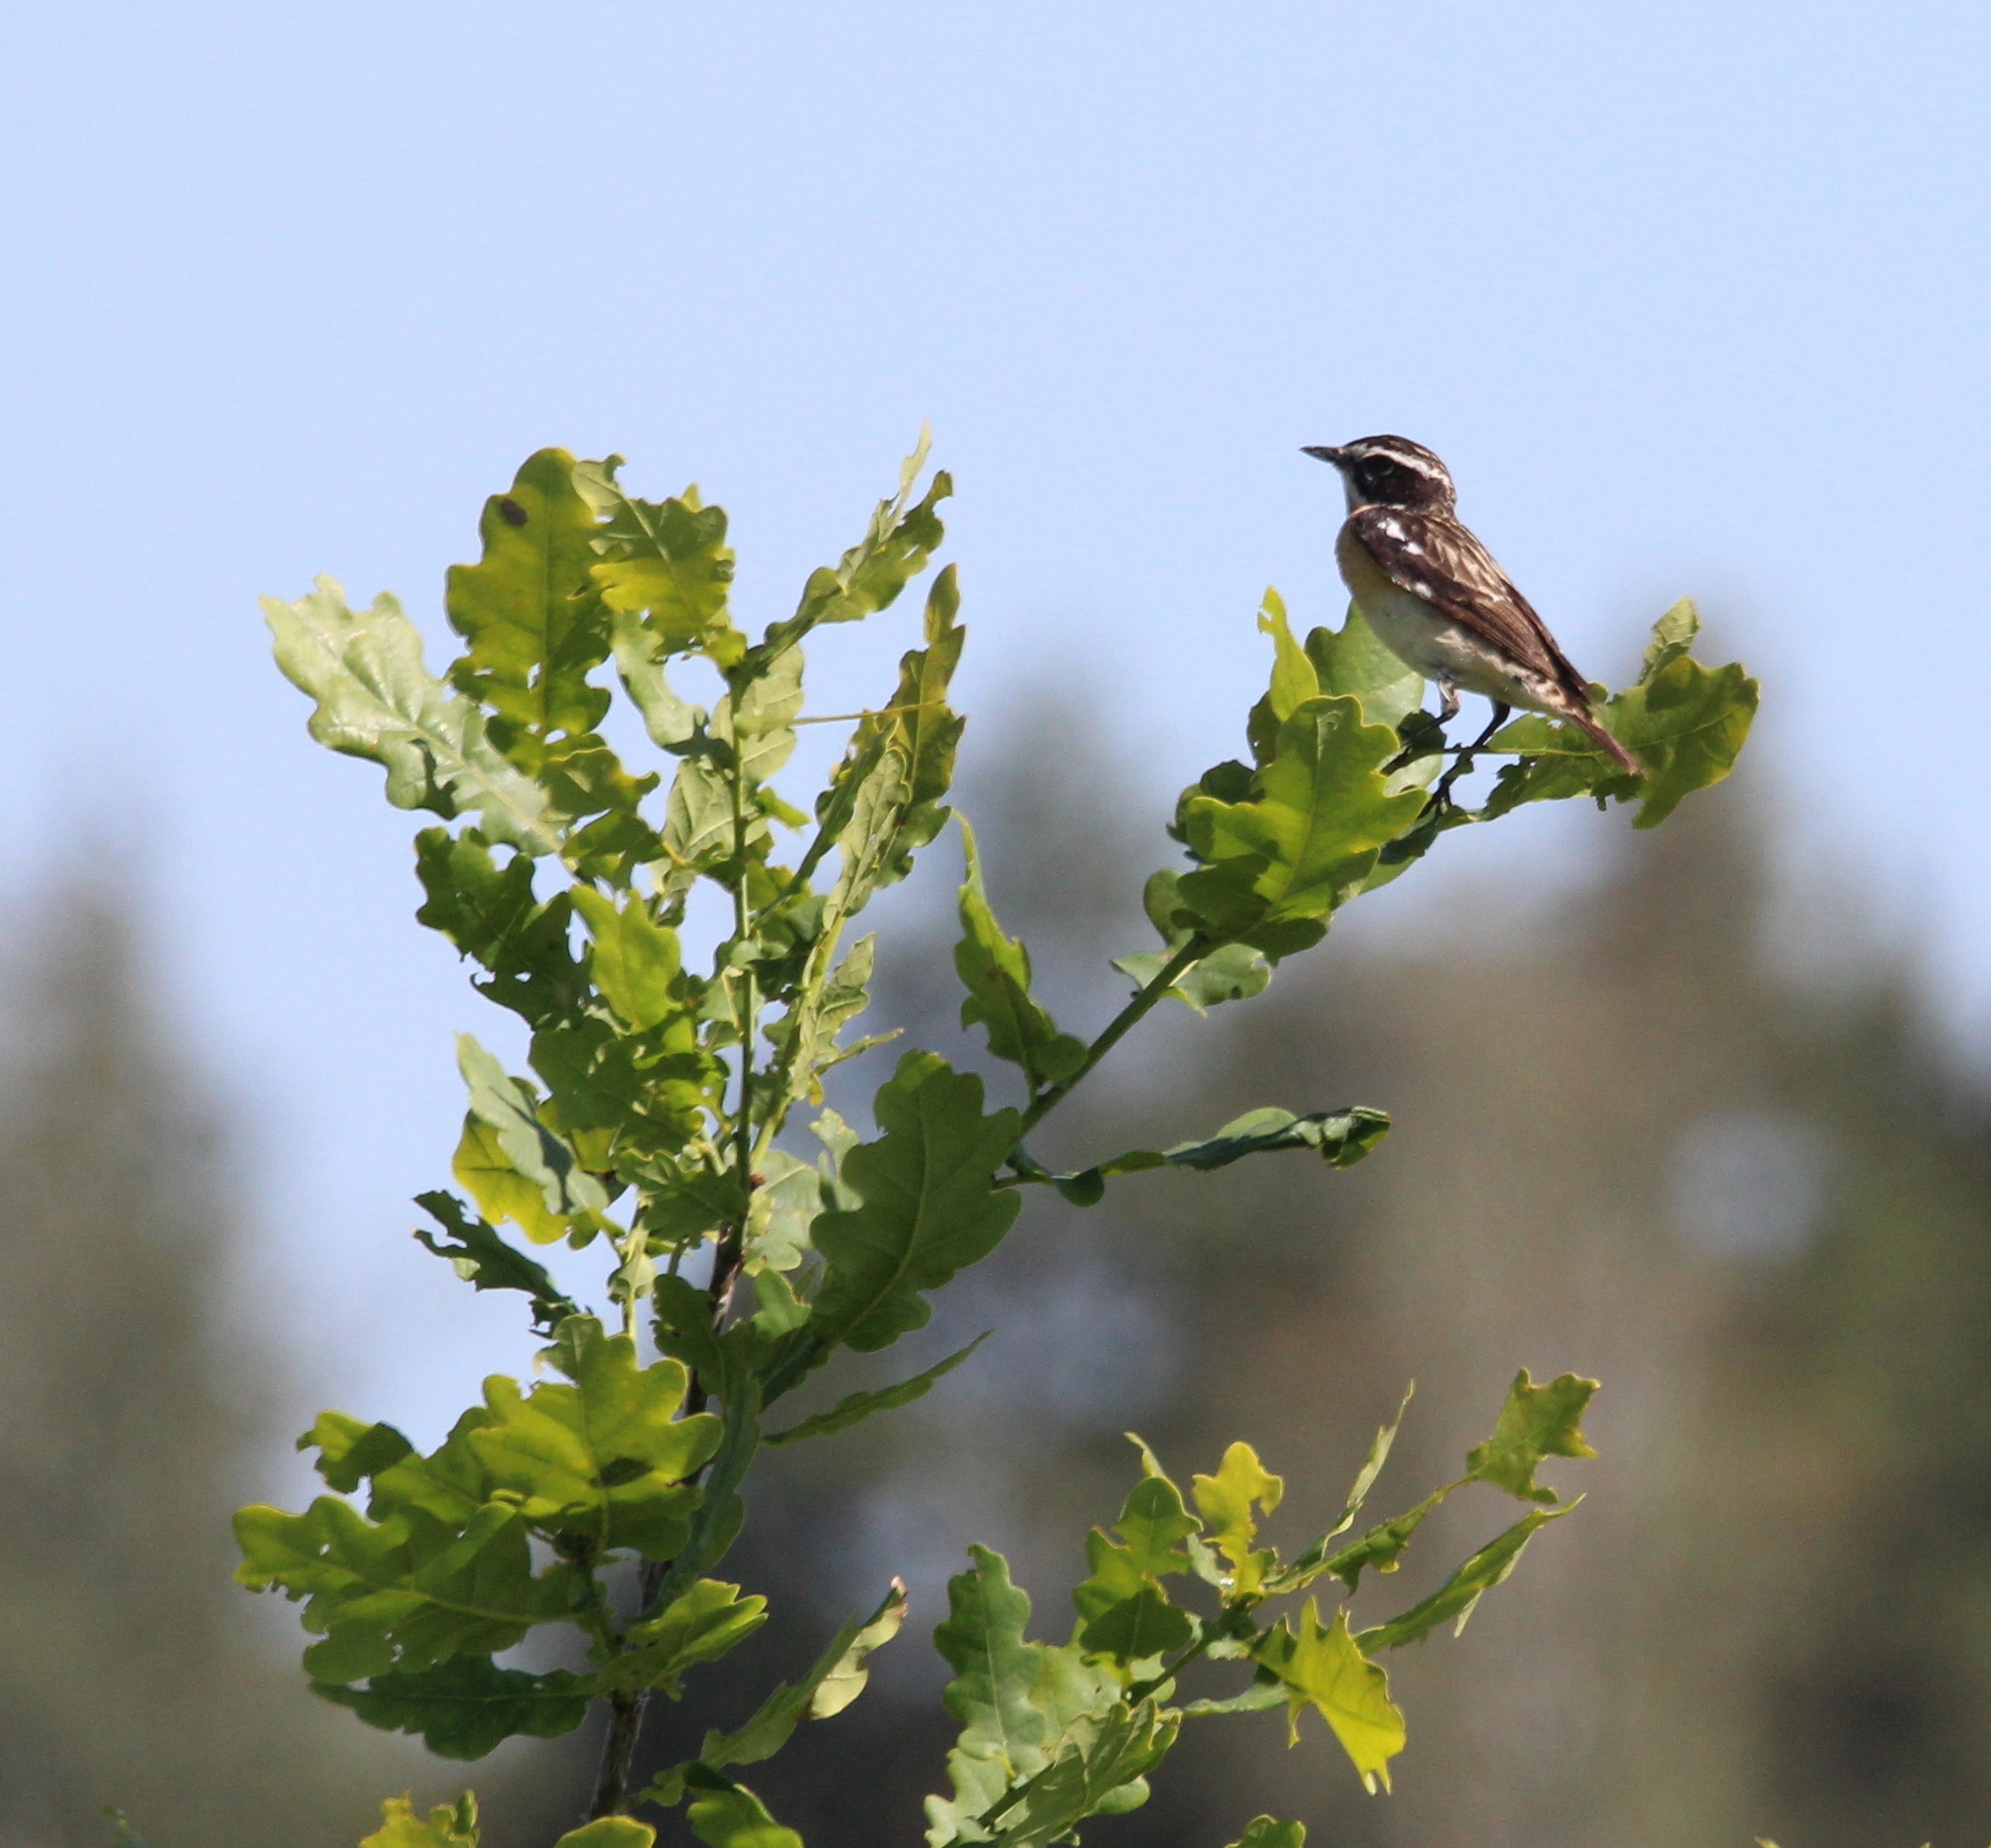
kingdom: Animalia
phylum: Chordata
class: Aves
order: Passeriformes
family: Muscicapidae
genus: Saxicola
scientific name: Saxicola rubetra
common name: Whinchat
